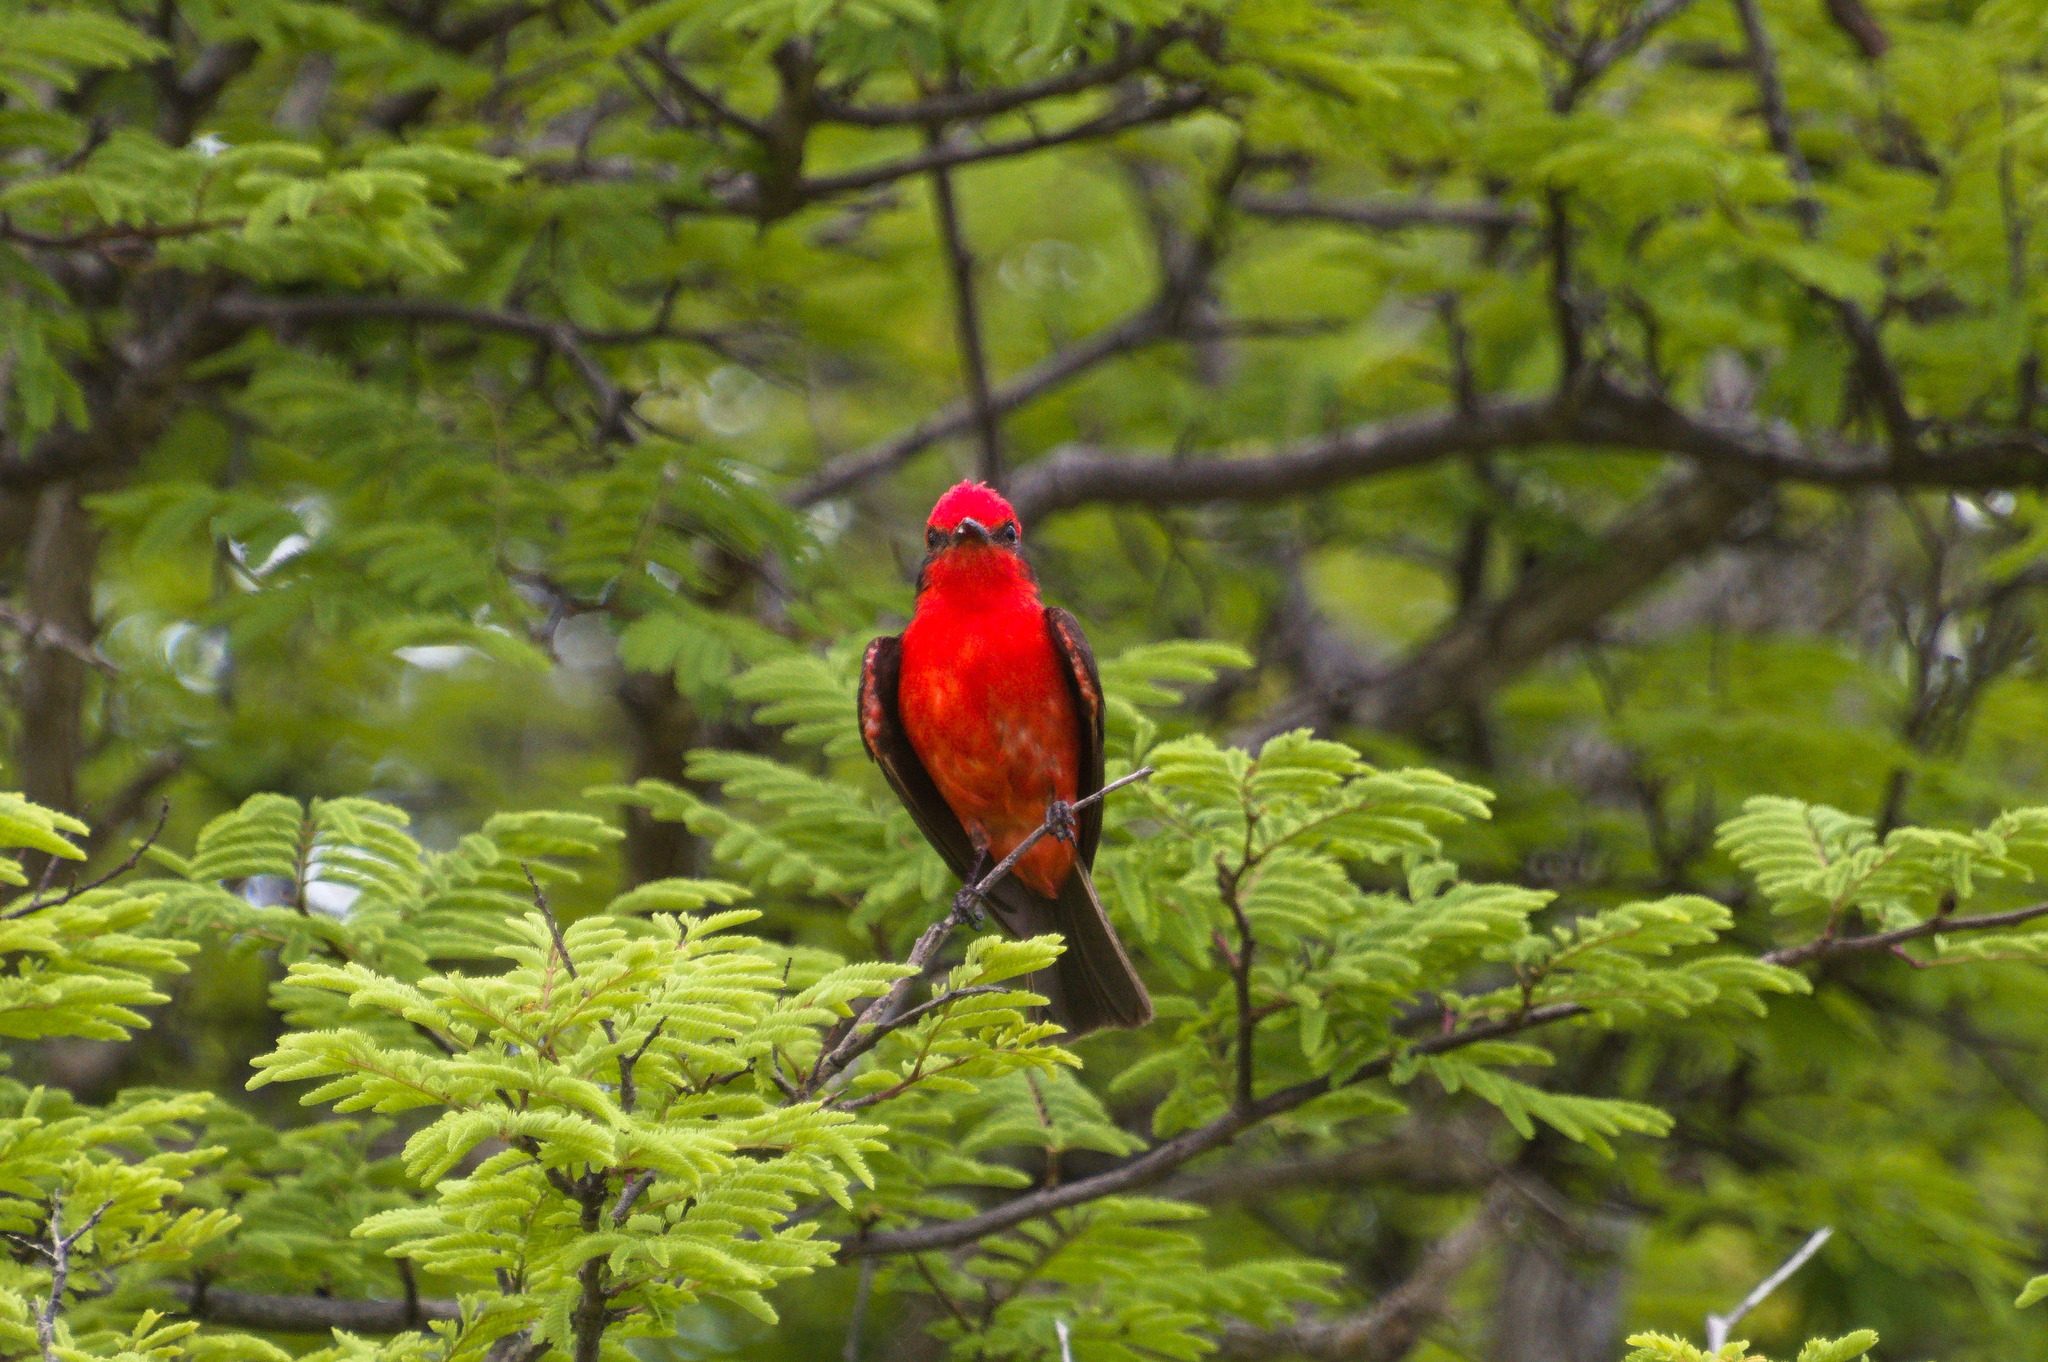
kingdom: Animalia
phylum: Chordata
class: Aves
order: Passeriformes
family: Tyrannidae
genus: Pyrocephalus
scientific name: Pyrocephalus rubinus
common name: Vermilion flycatcher
